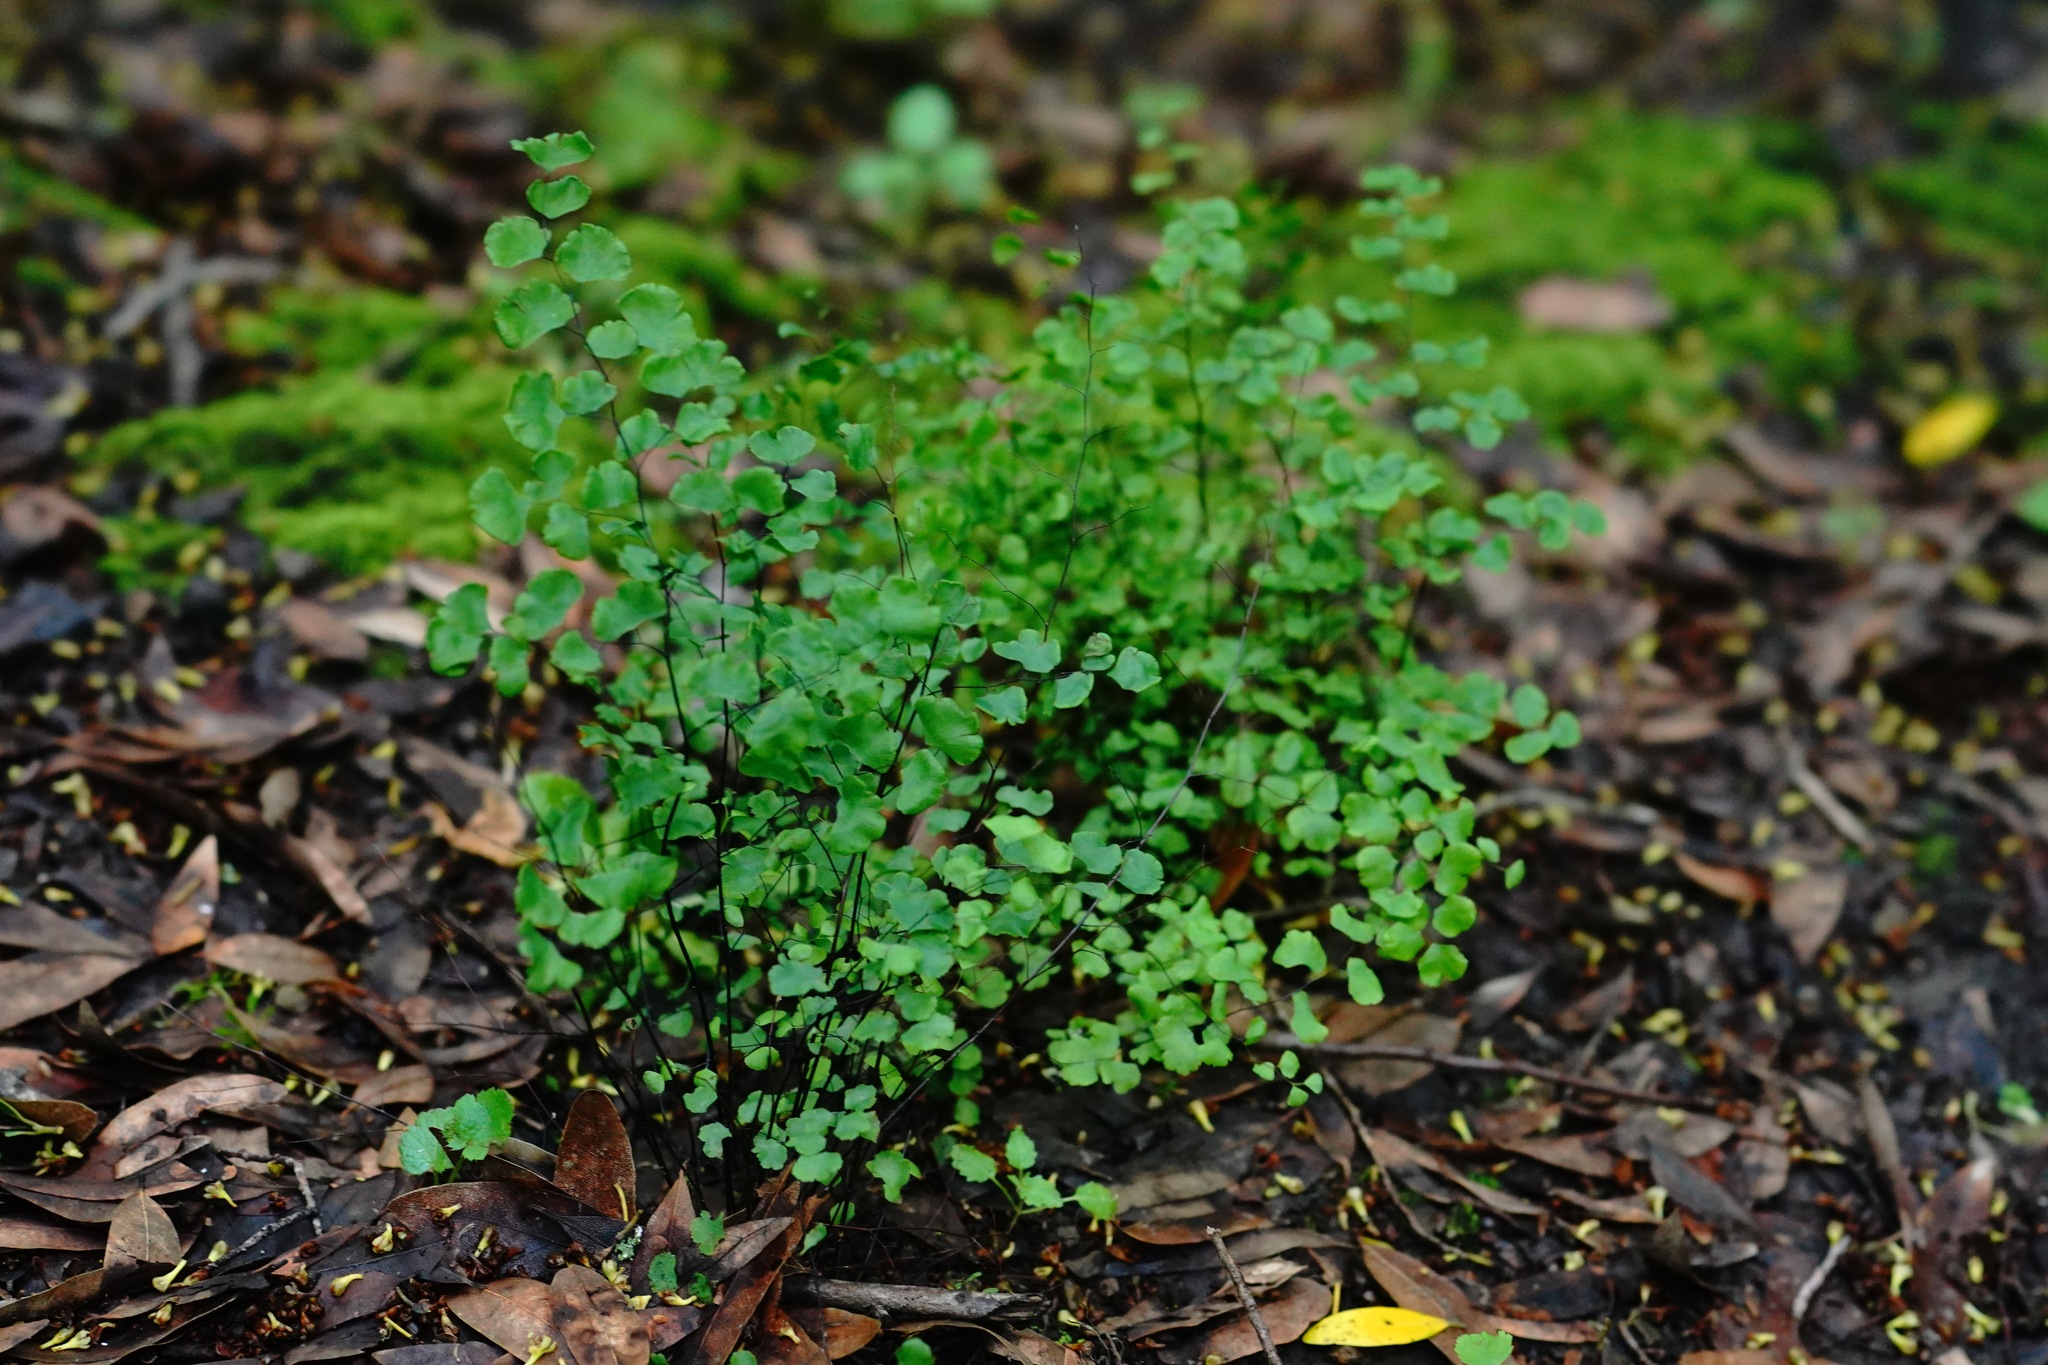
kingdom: Plantae
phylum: Tracheophyta
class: Polypodiopsida
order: Polypodiales
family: Pteridaceae
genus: Adiantum
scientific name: Adiantum jordanii
